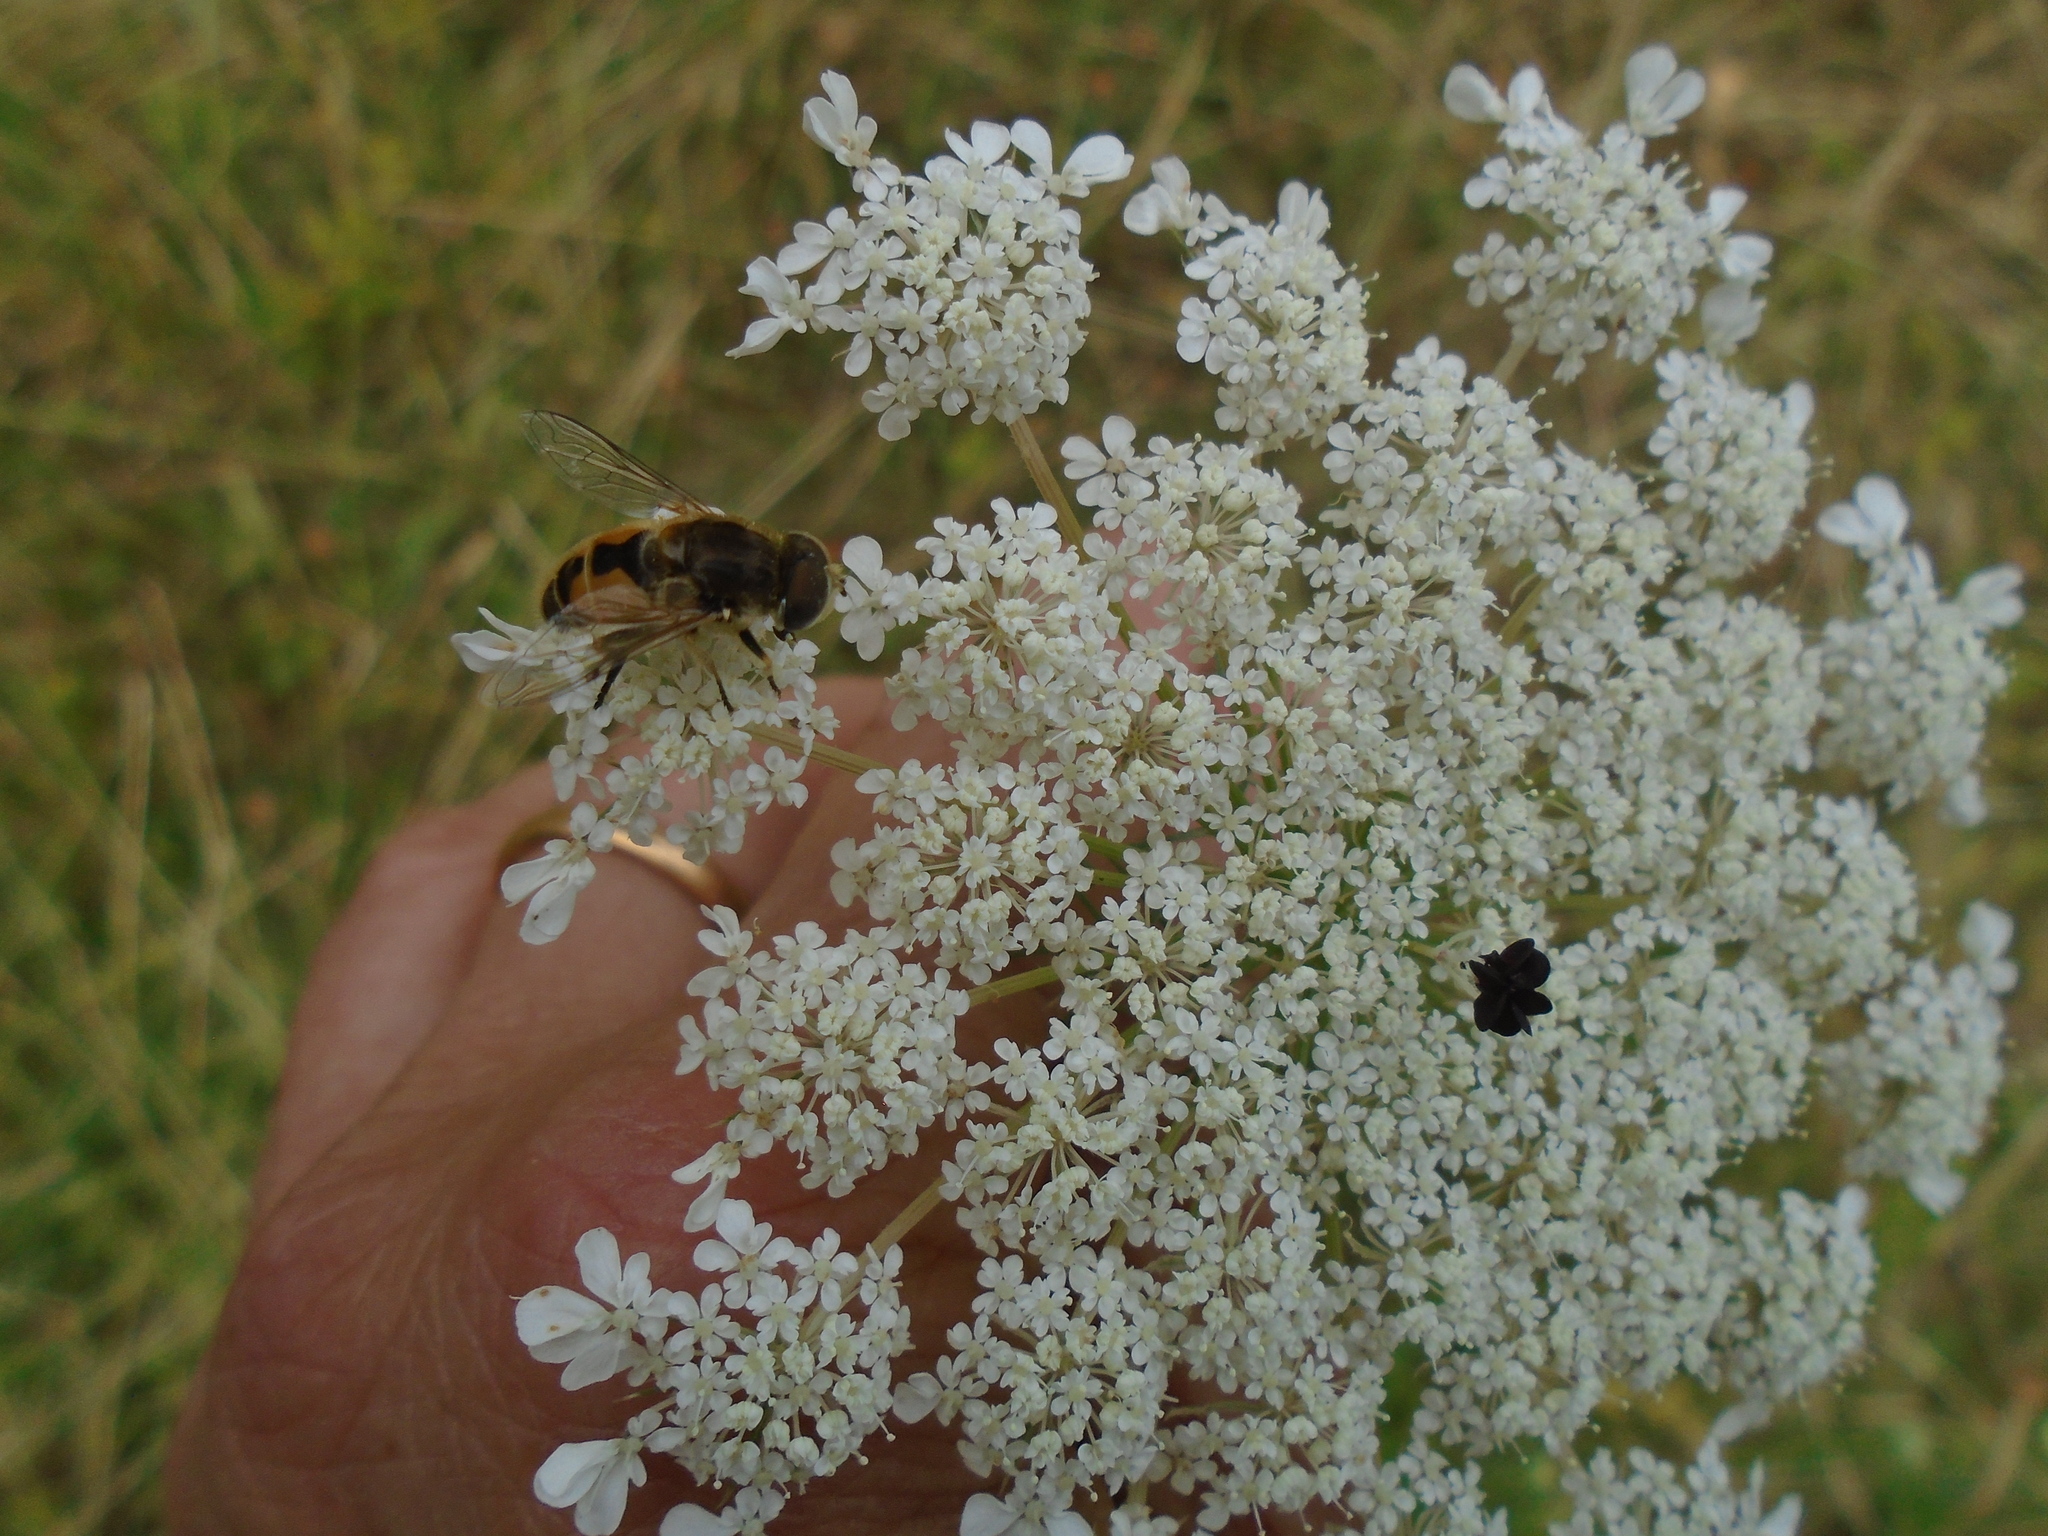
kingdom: Animalia
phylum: Arthropoda
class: Insecta
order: Diptera
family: Syrphidae
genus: Eristalis
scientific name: Eristalis arbustorum
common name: Hover fly
